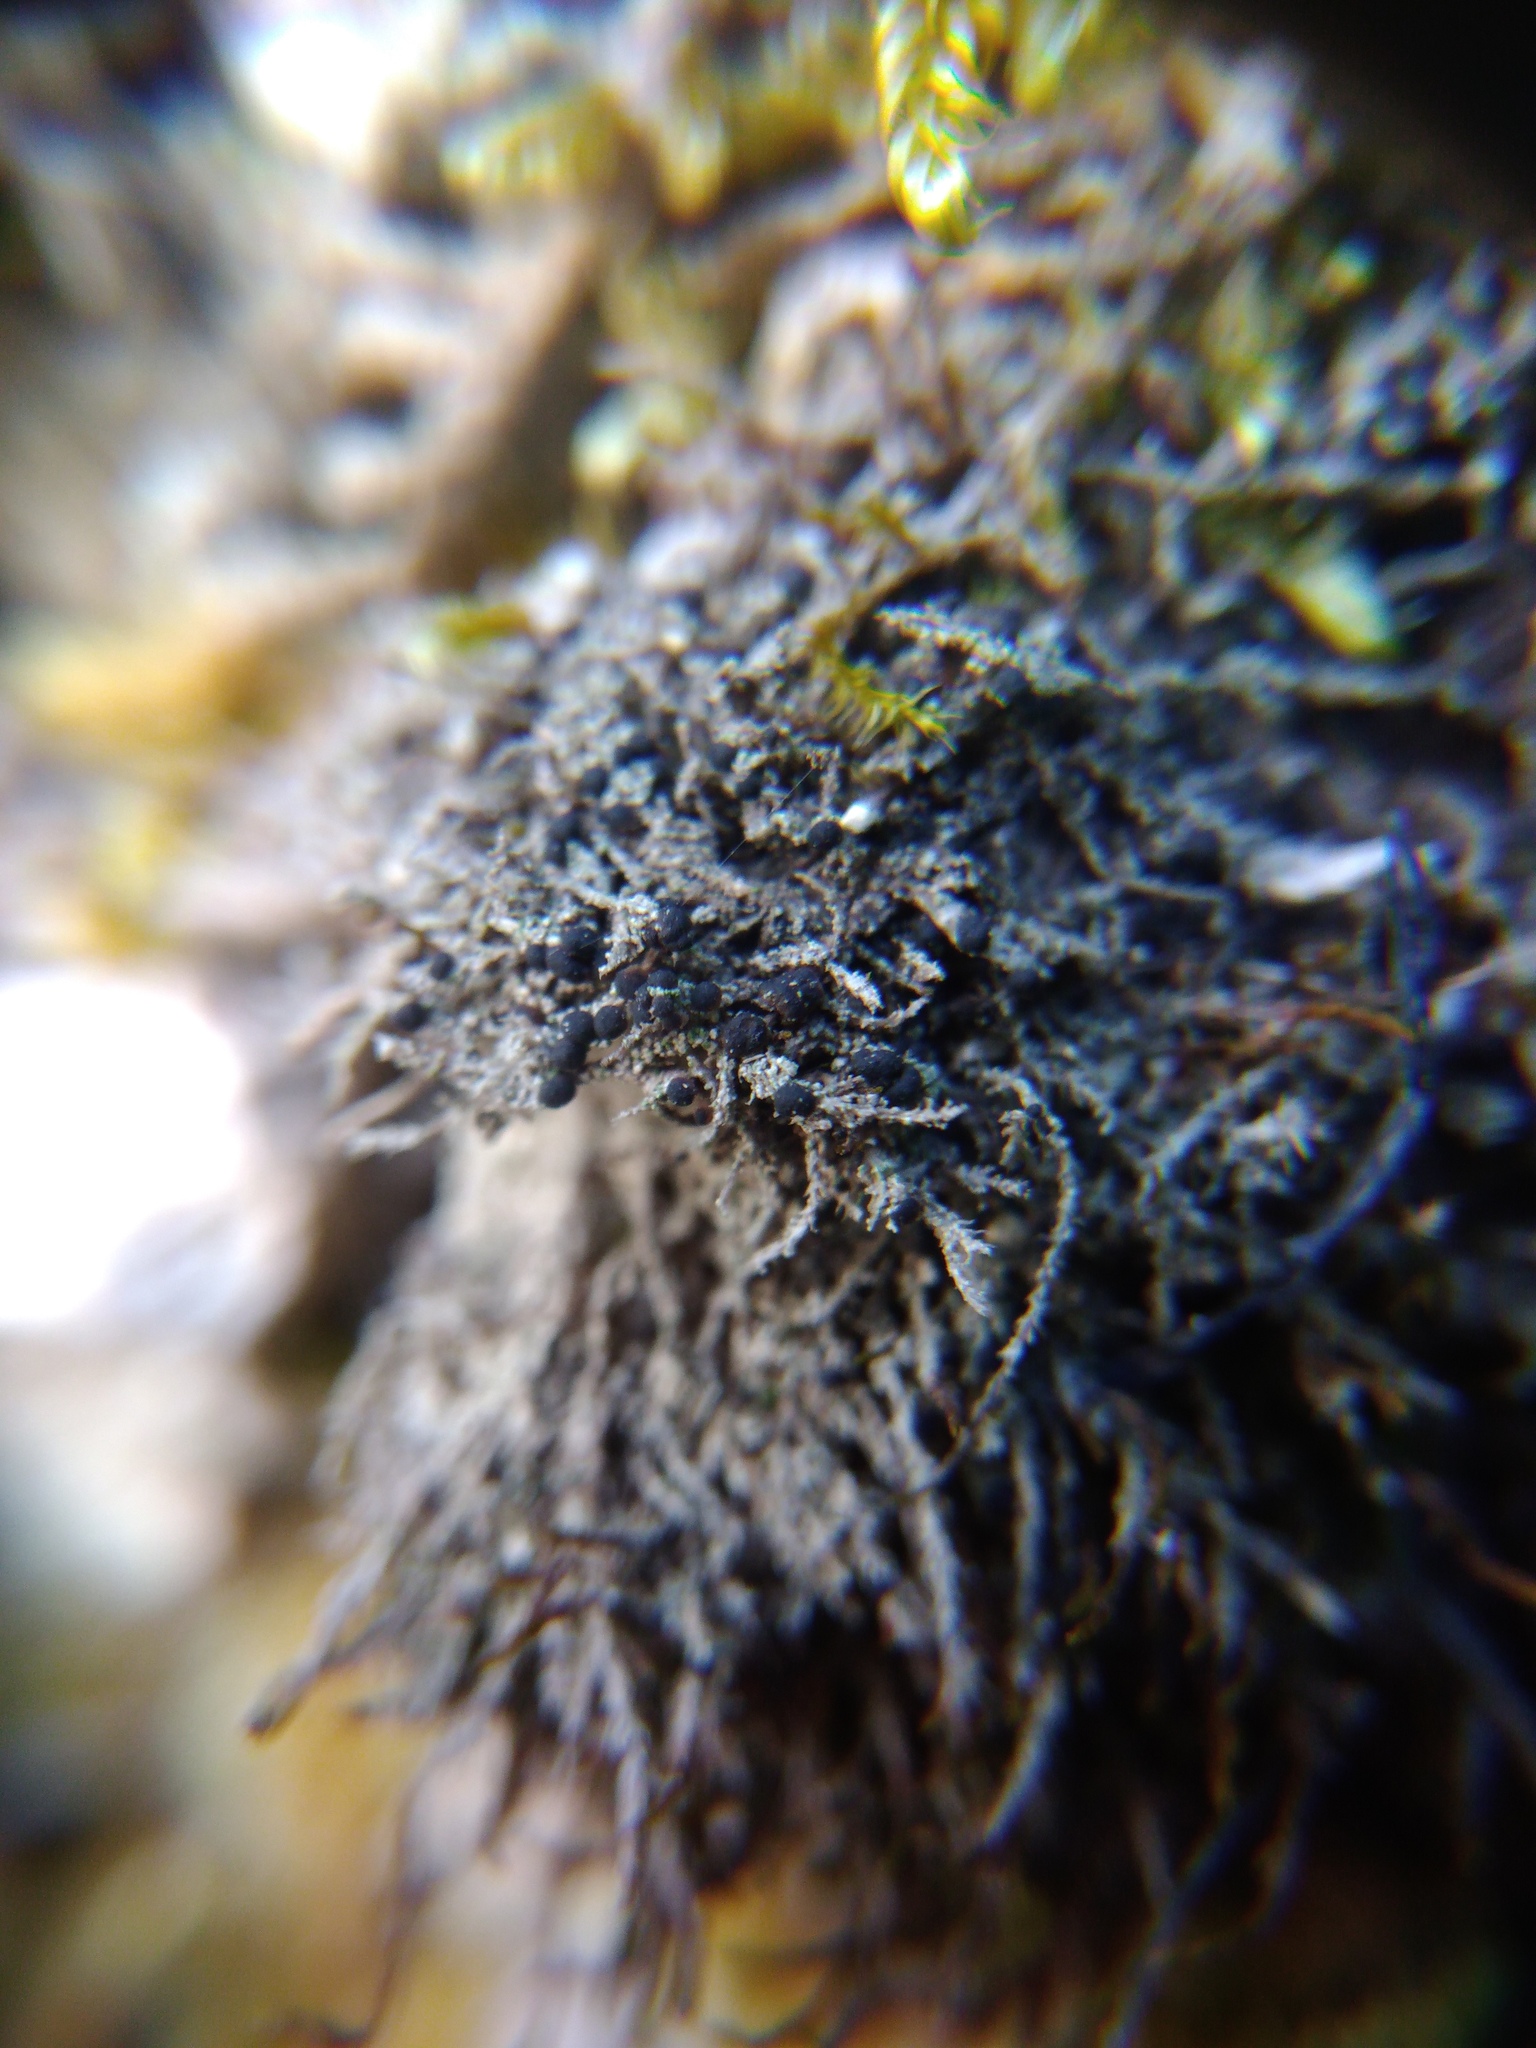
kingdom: Fungi
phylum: Ascomycota
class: Lecanoromycetes
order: Lecanorales
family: Ramalinaceae
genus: Bilimbia
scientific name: Bilimbia sabuletorum
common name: Six-celled moss dot lichen
